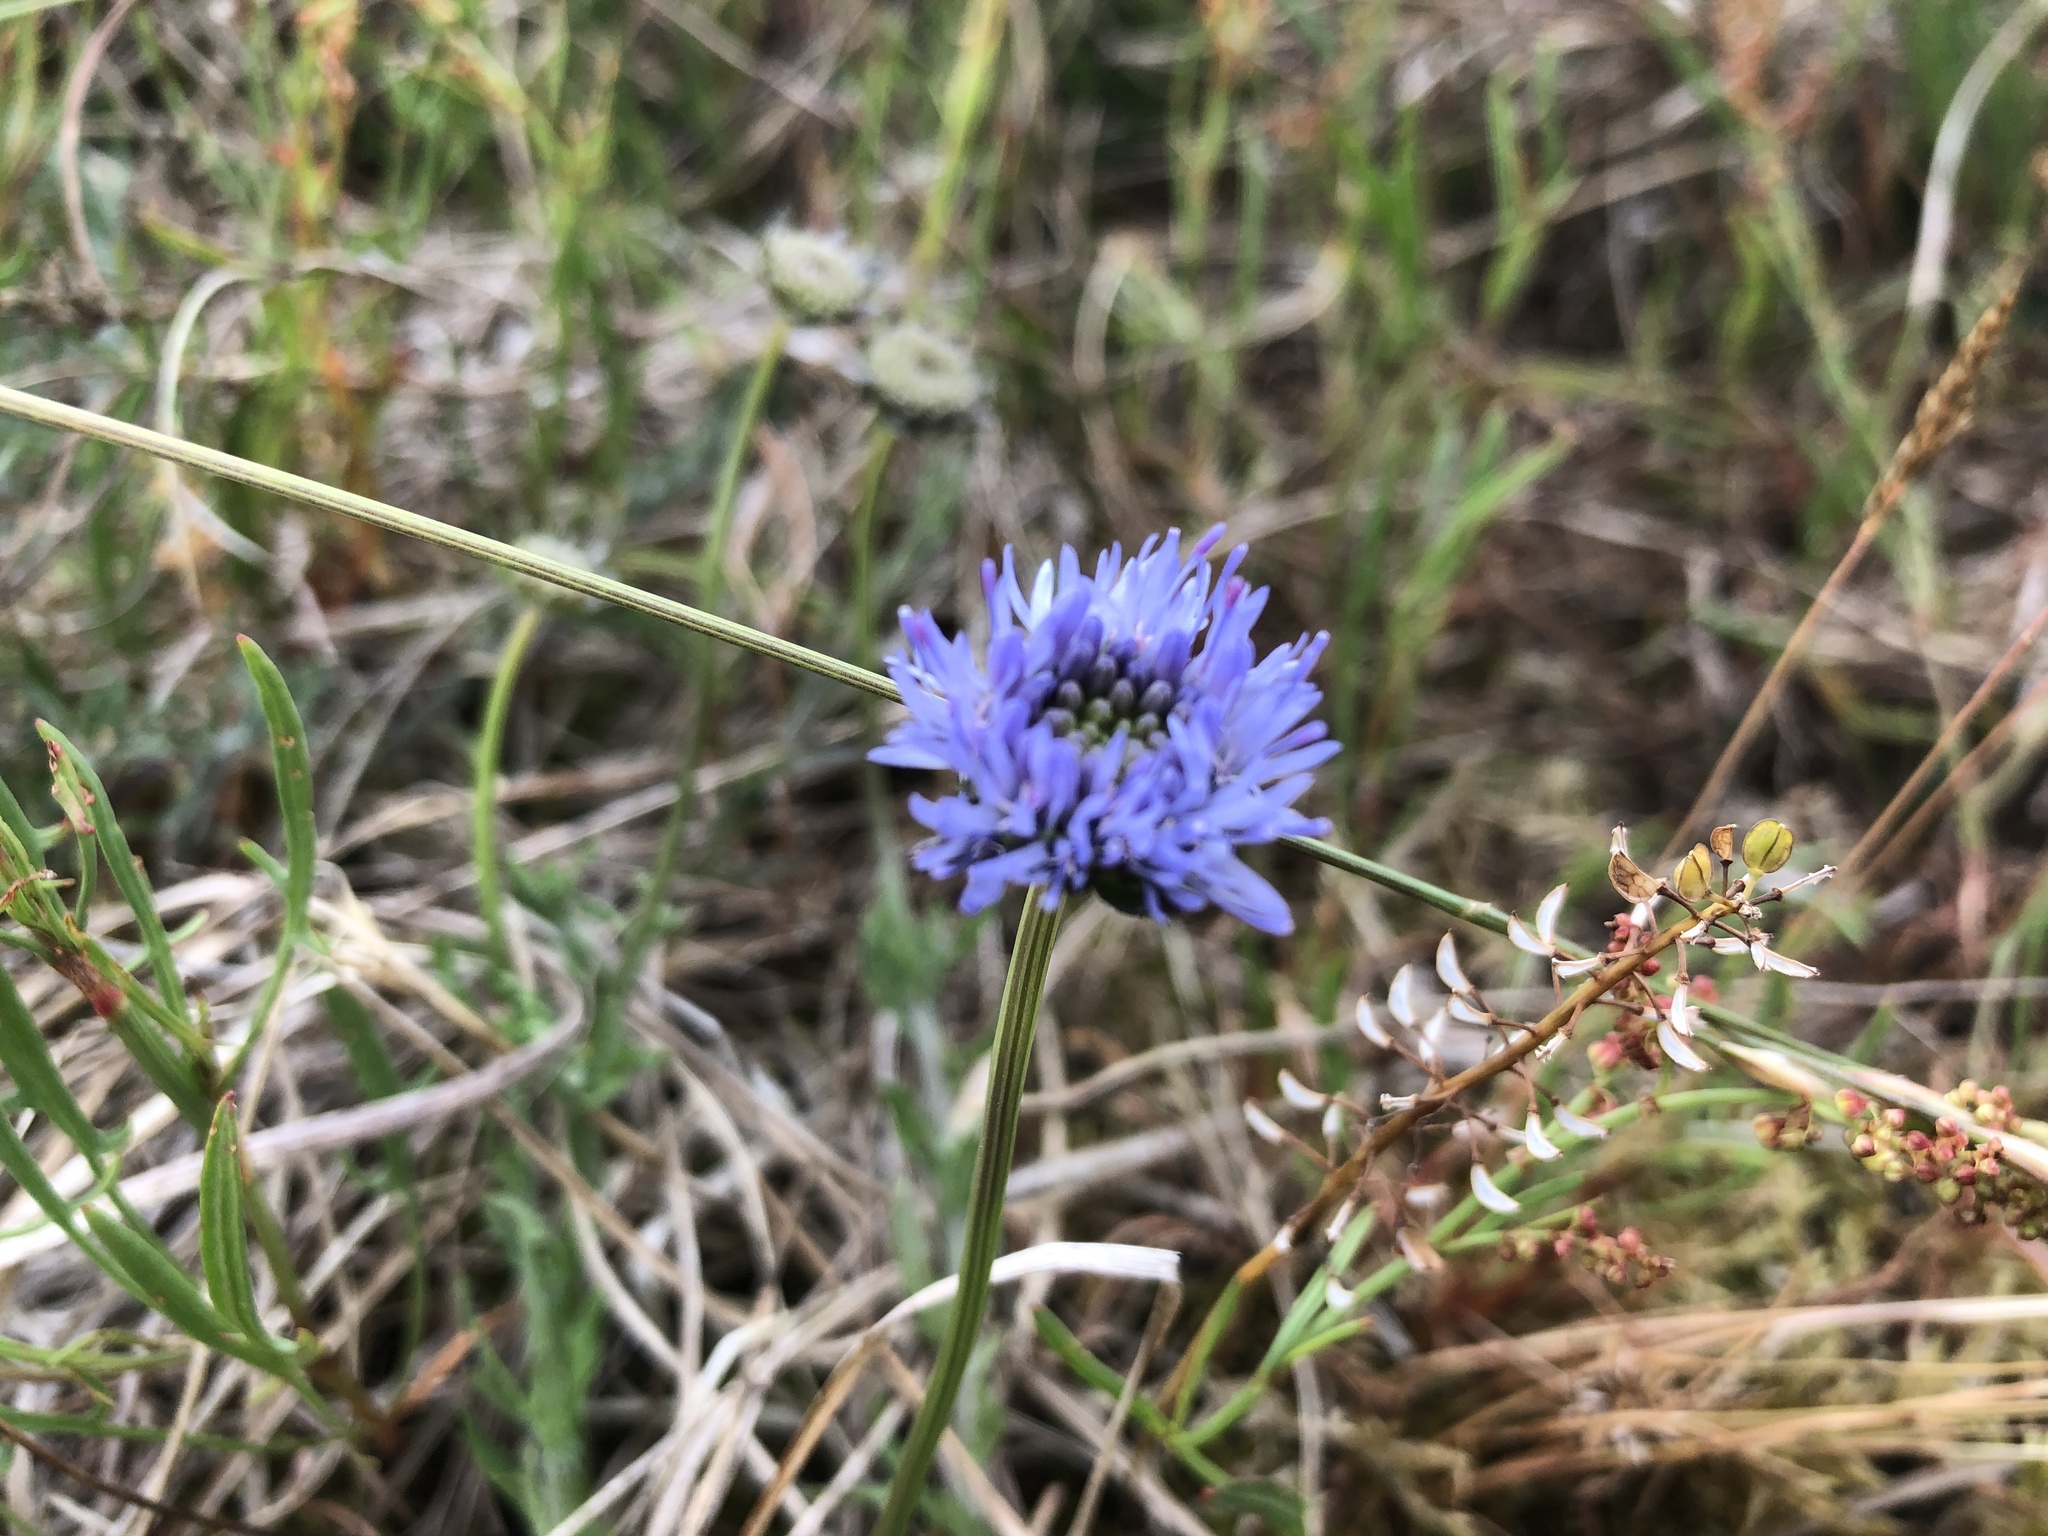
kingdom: Plantae
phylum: Tracheophyta
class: Magnoliopsida
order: Asterales
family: Campanulaceae
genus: Jasione
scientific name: Jasione montana
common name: Sheep's-bit
